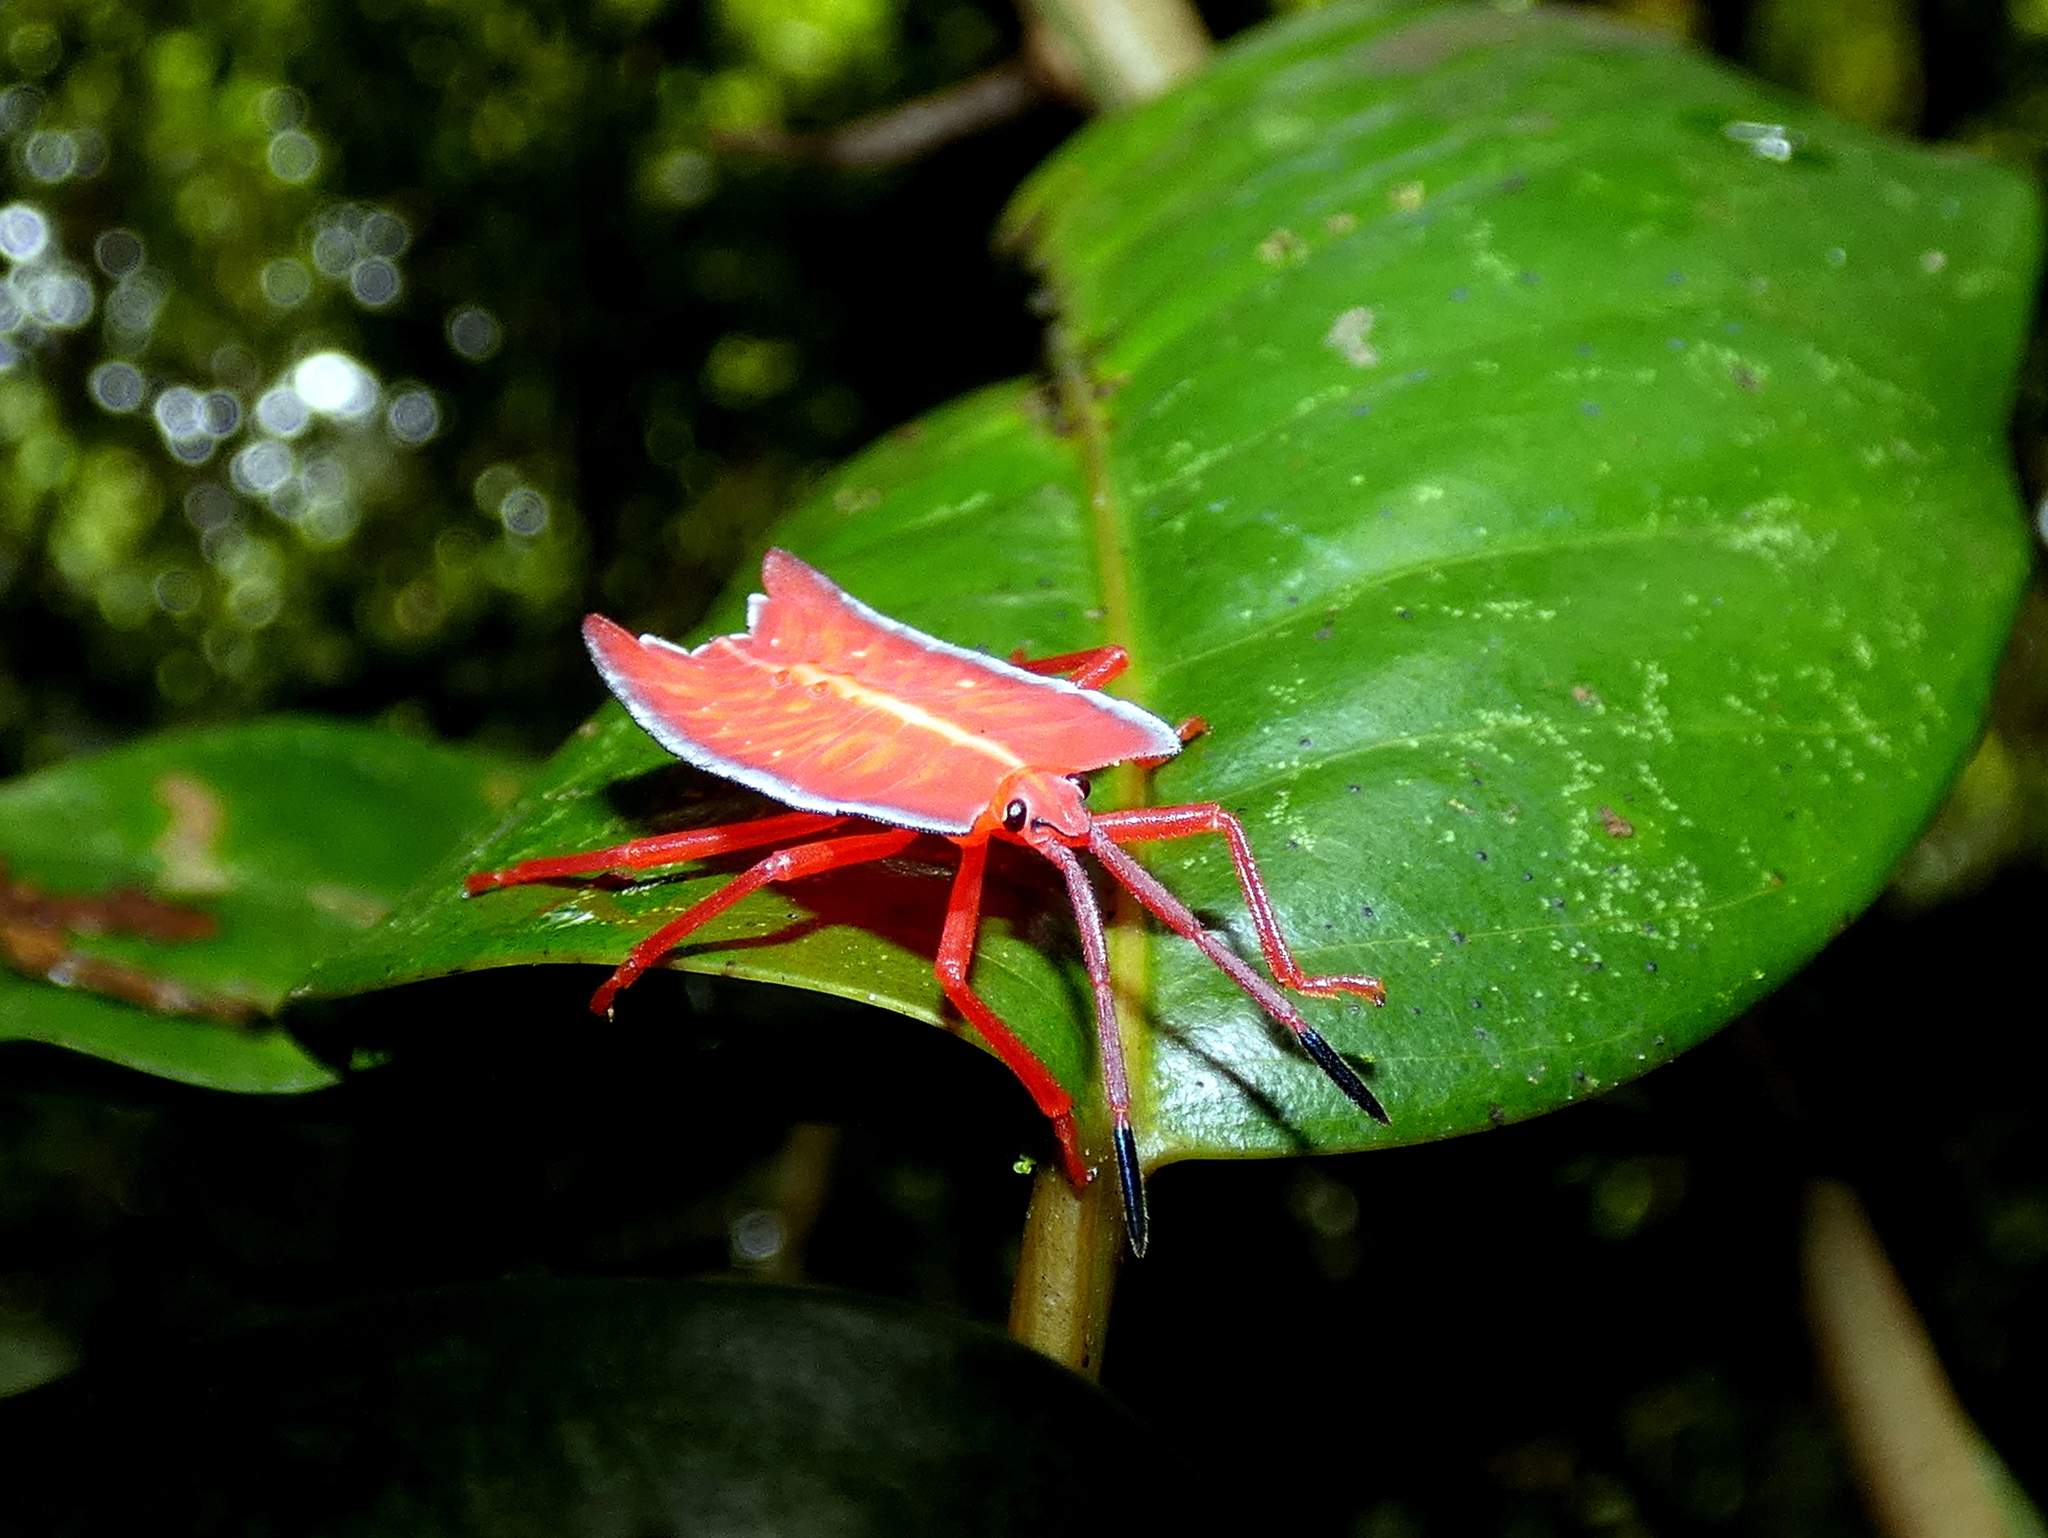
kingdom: Animalia
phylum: Arthropoda
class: Insecta
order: Hemiptera
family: Tessaratomidae
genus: Pycanum
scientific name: Pycanum alternatum
